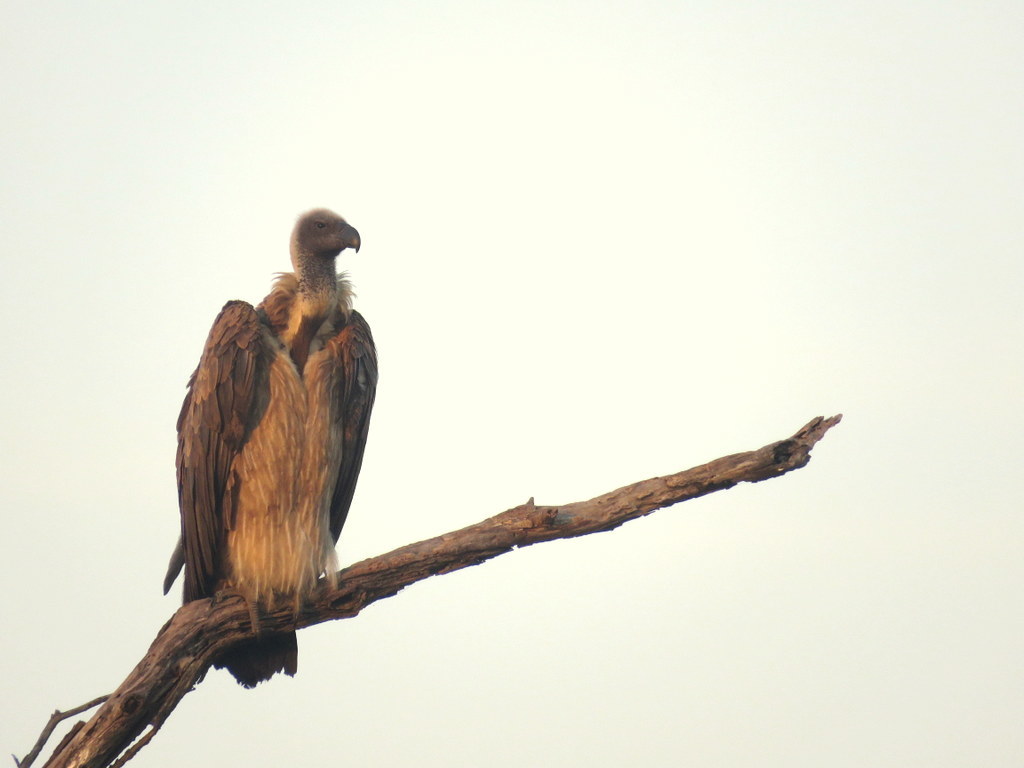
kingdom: Animalia
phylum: Chordata
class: Aves
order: Accipitriformes
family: Accipitridae
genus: Gyps
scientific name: Gyps africanus
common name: White-backed vulture
